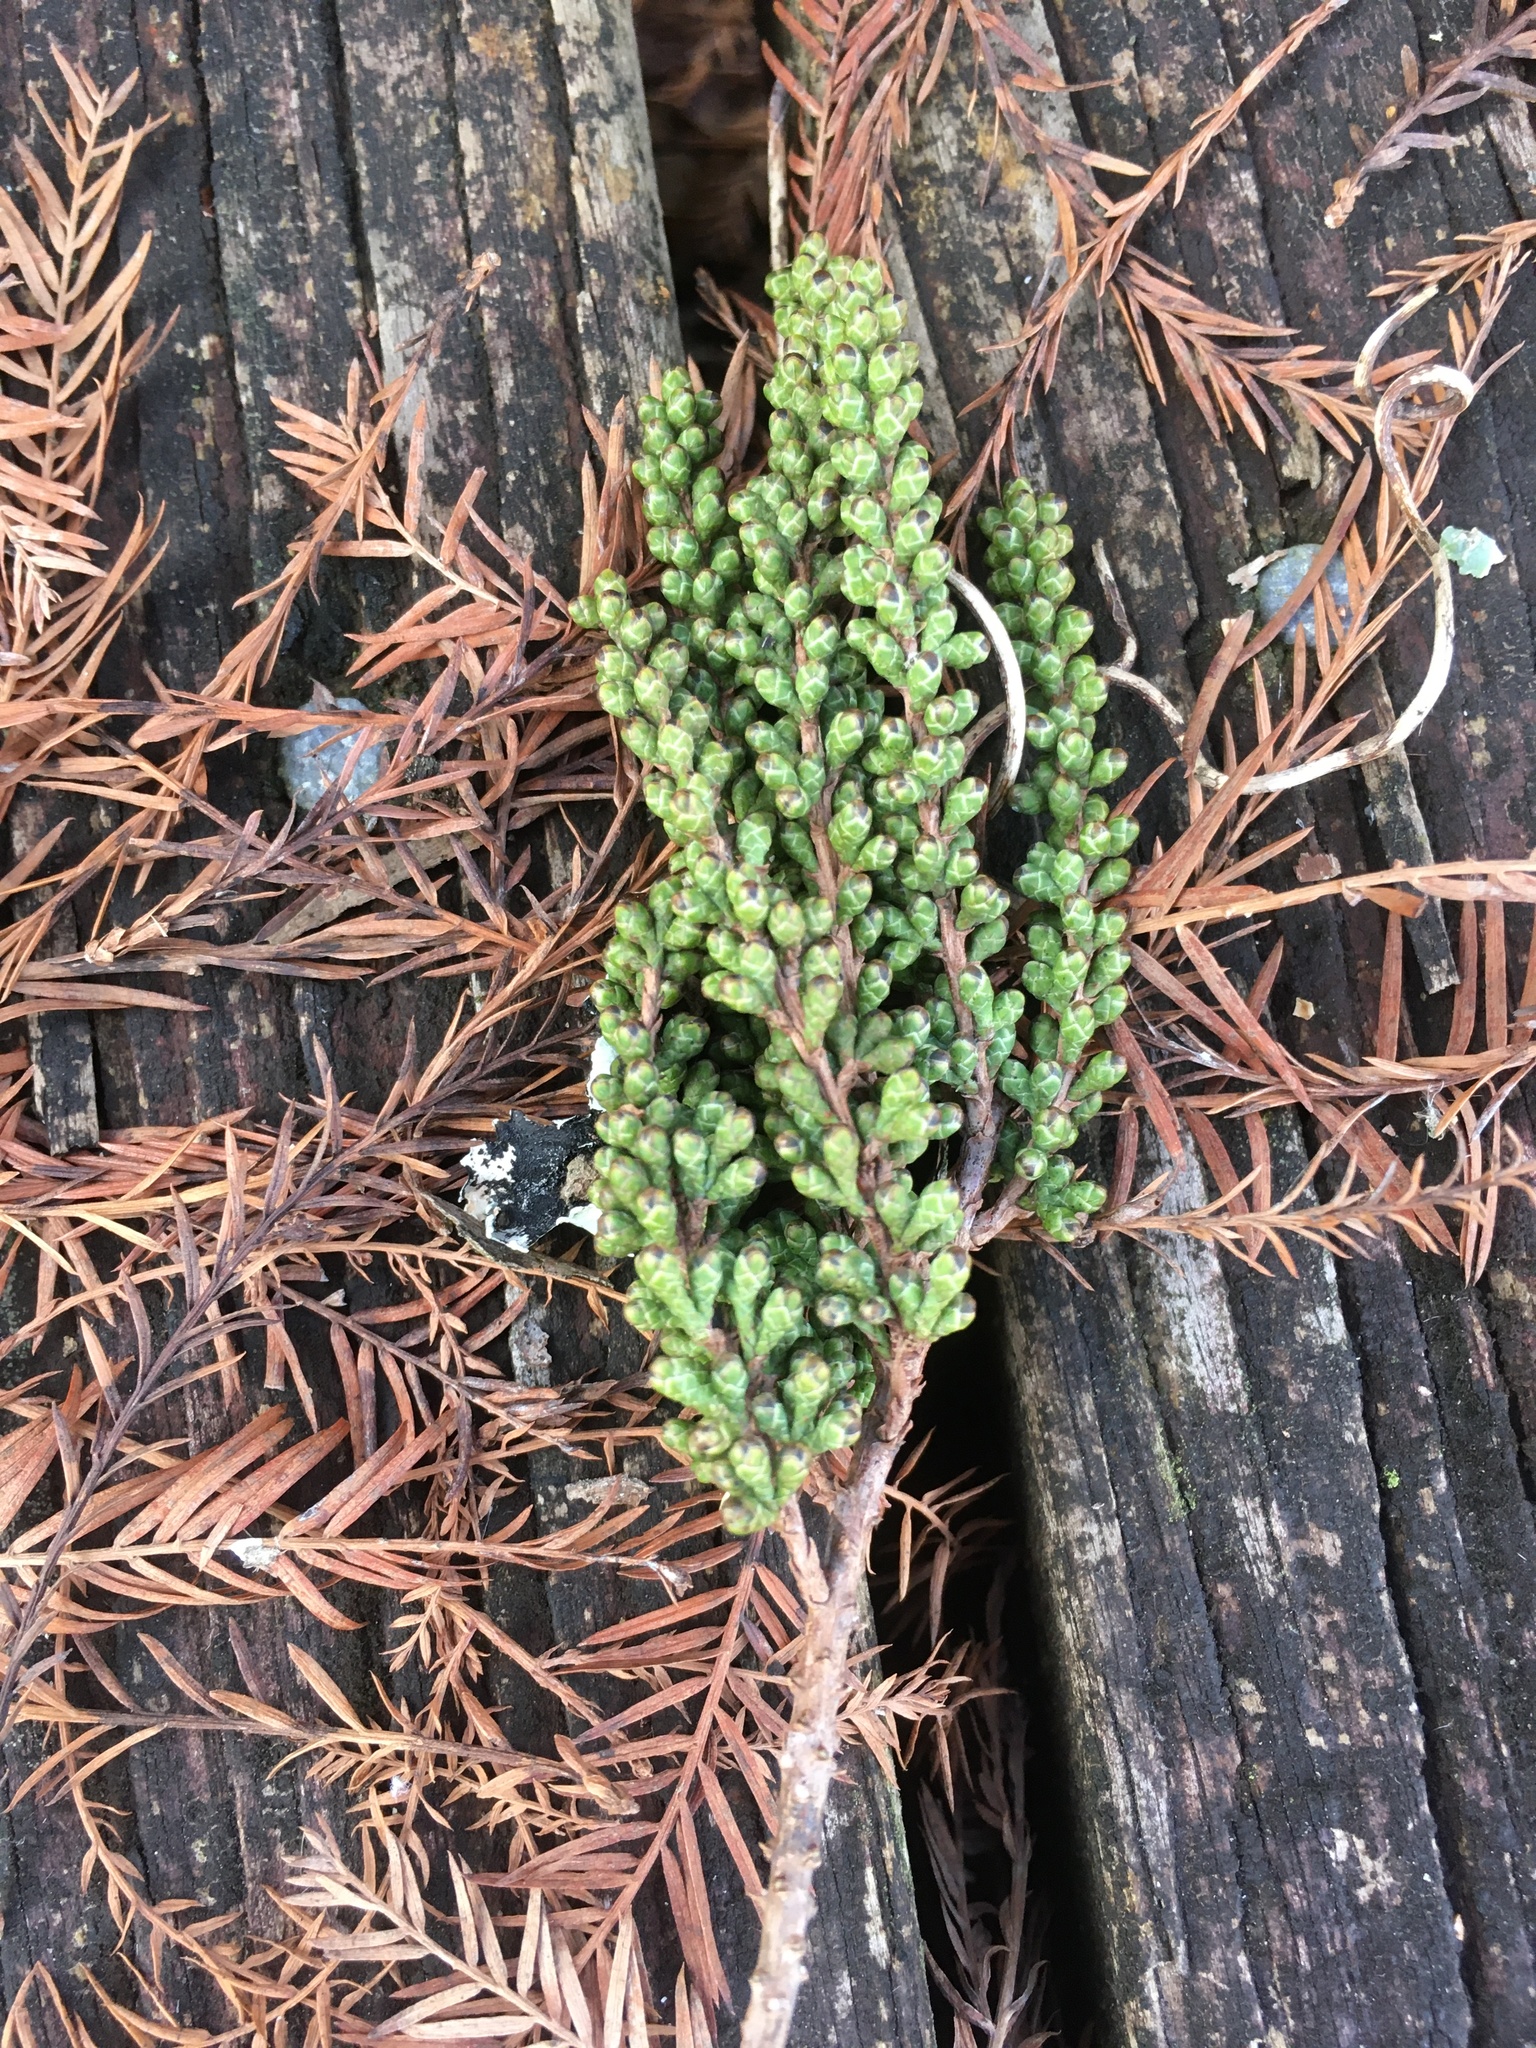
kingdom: Plantae
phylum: Tracheophyta
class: Pinopsida
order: Pinales
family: Cupressaceae
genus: Taxodium
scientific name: Taxodium distichum
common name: Bald cypress
